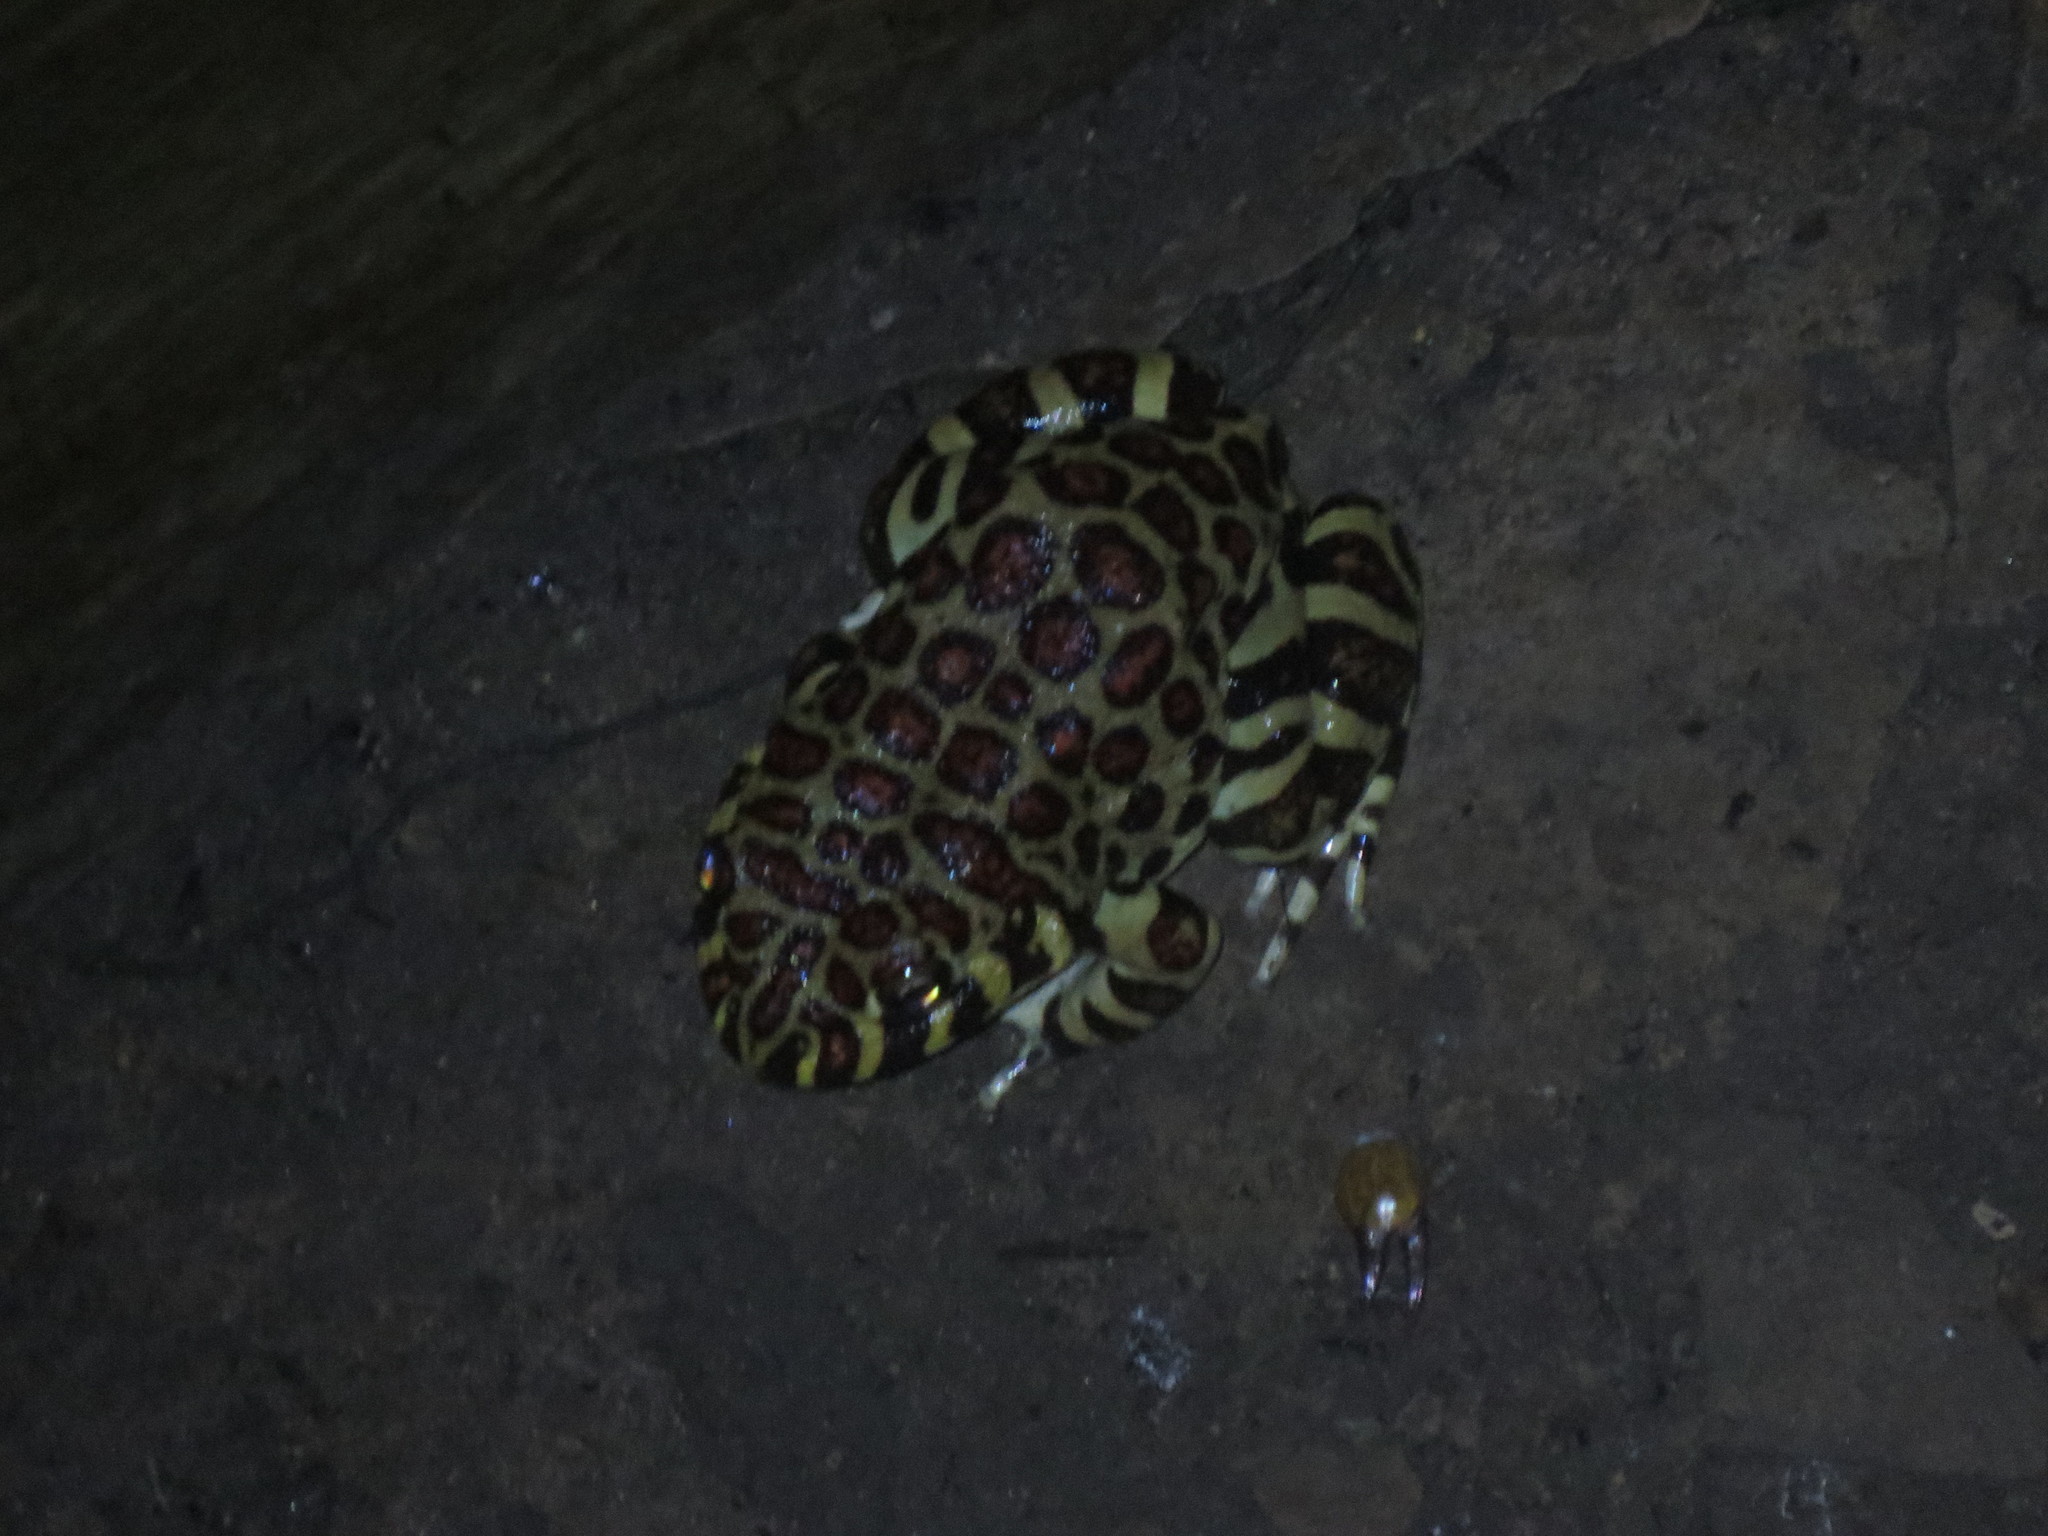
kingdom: Animalia
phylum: Chordata
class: Amphibia
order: Anura
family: Leptodactylidae
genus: Leptodactylus
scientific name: Leptodactylus laticeps
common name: Santa fe frog
